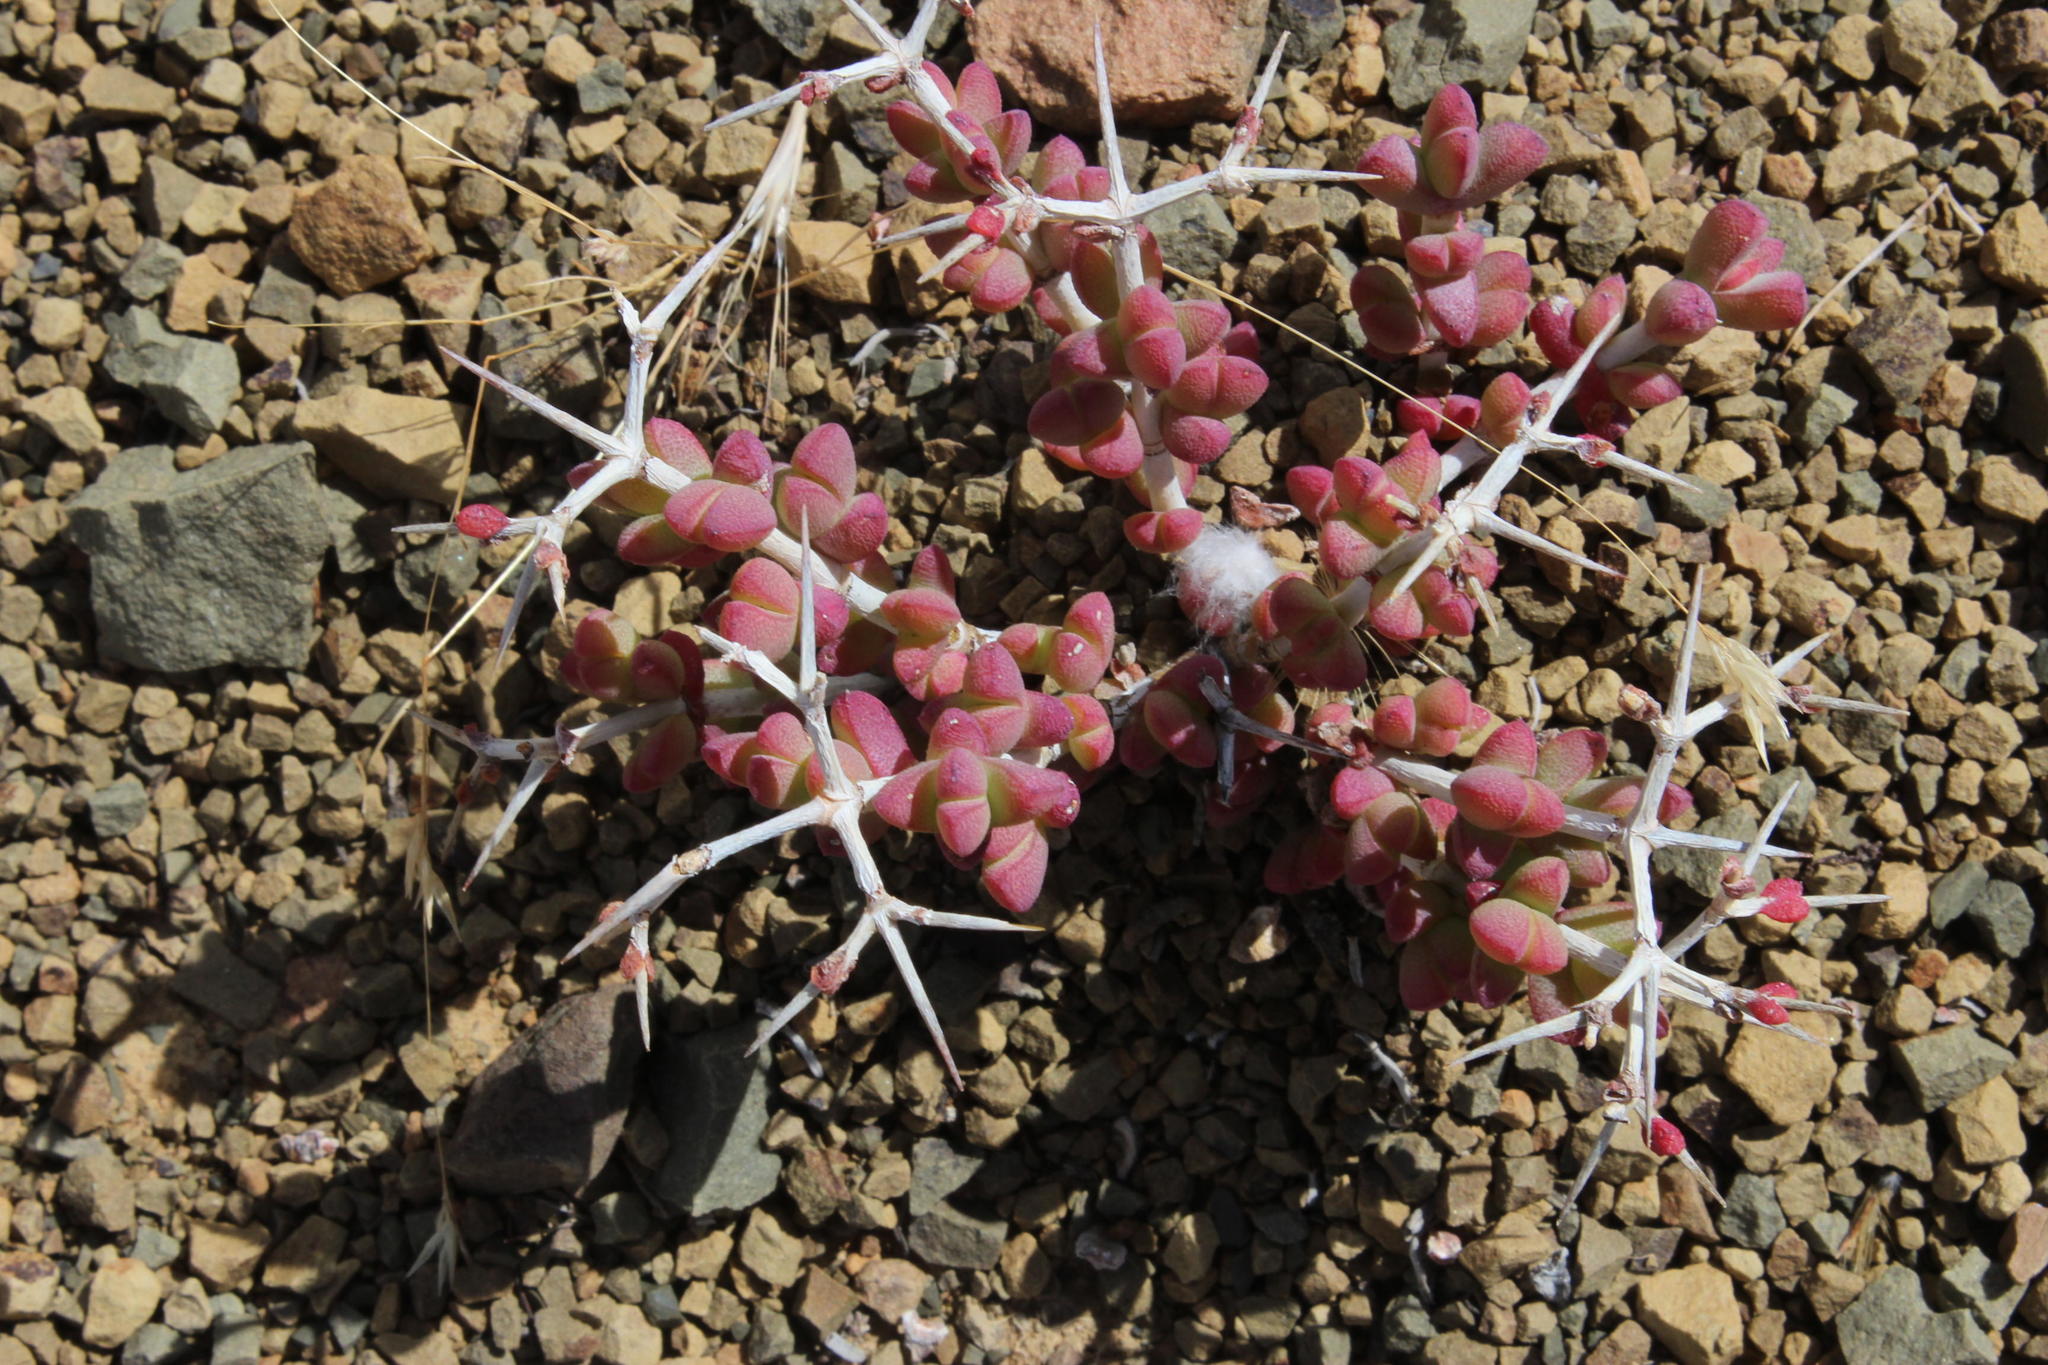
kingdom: Plantae
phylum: Tracheophyta
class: Magnoliopsida
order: Caryophyllales
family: Aizoaceae
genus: Schlechteranthus
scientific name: Schlechteranthus pungens
